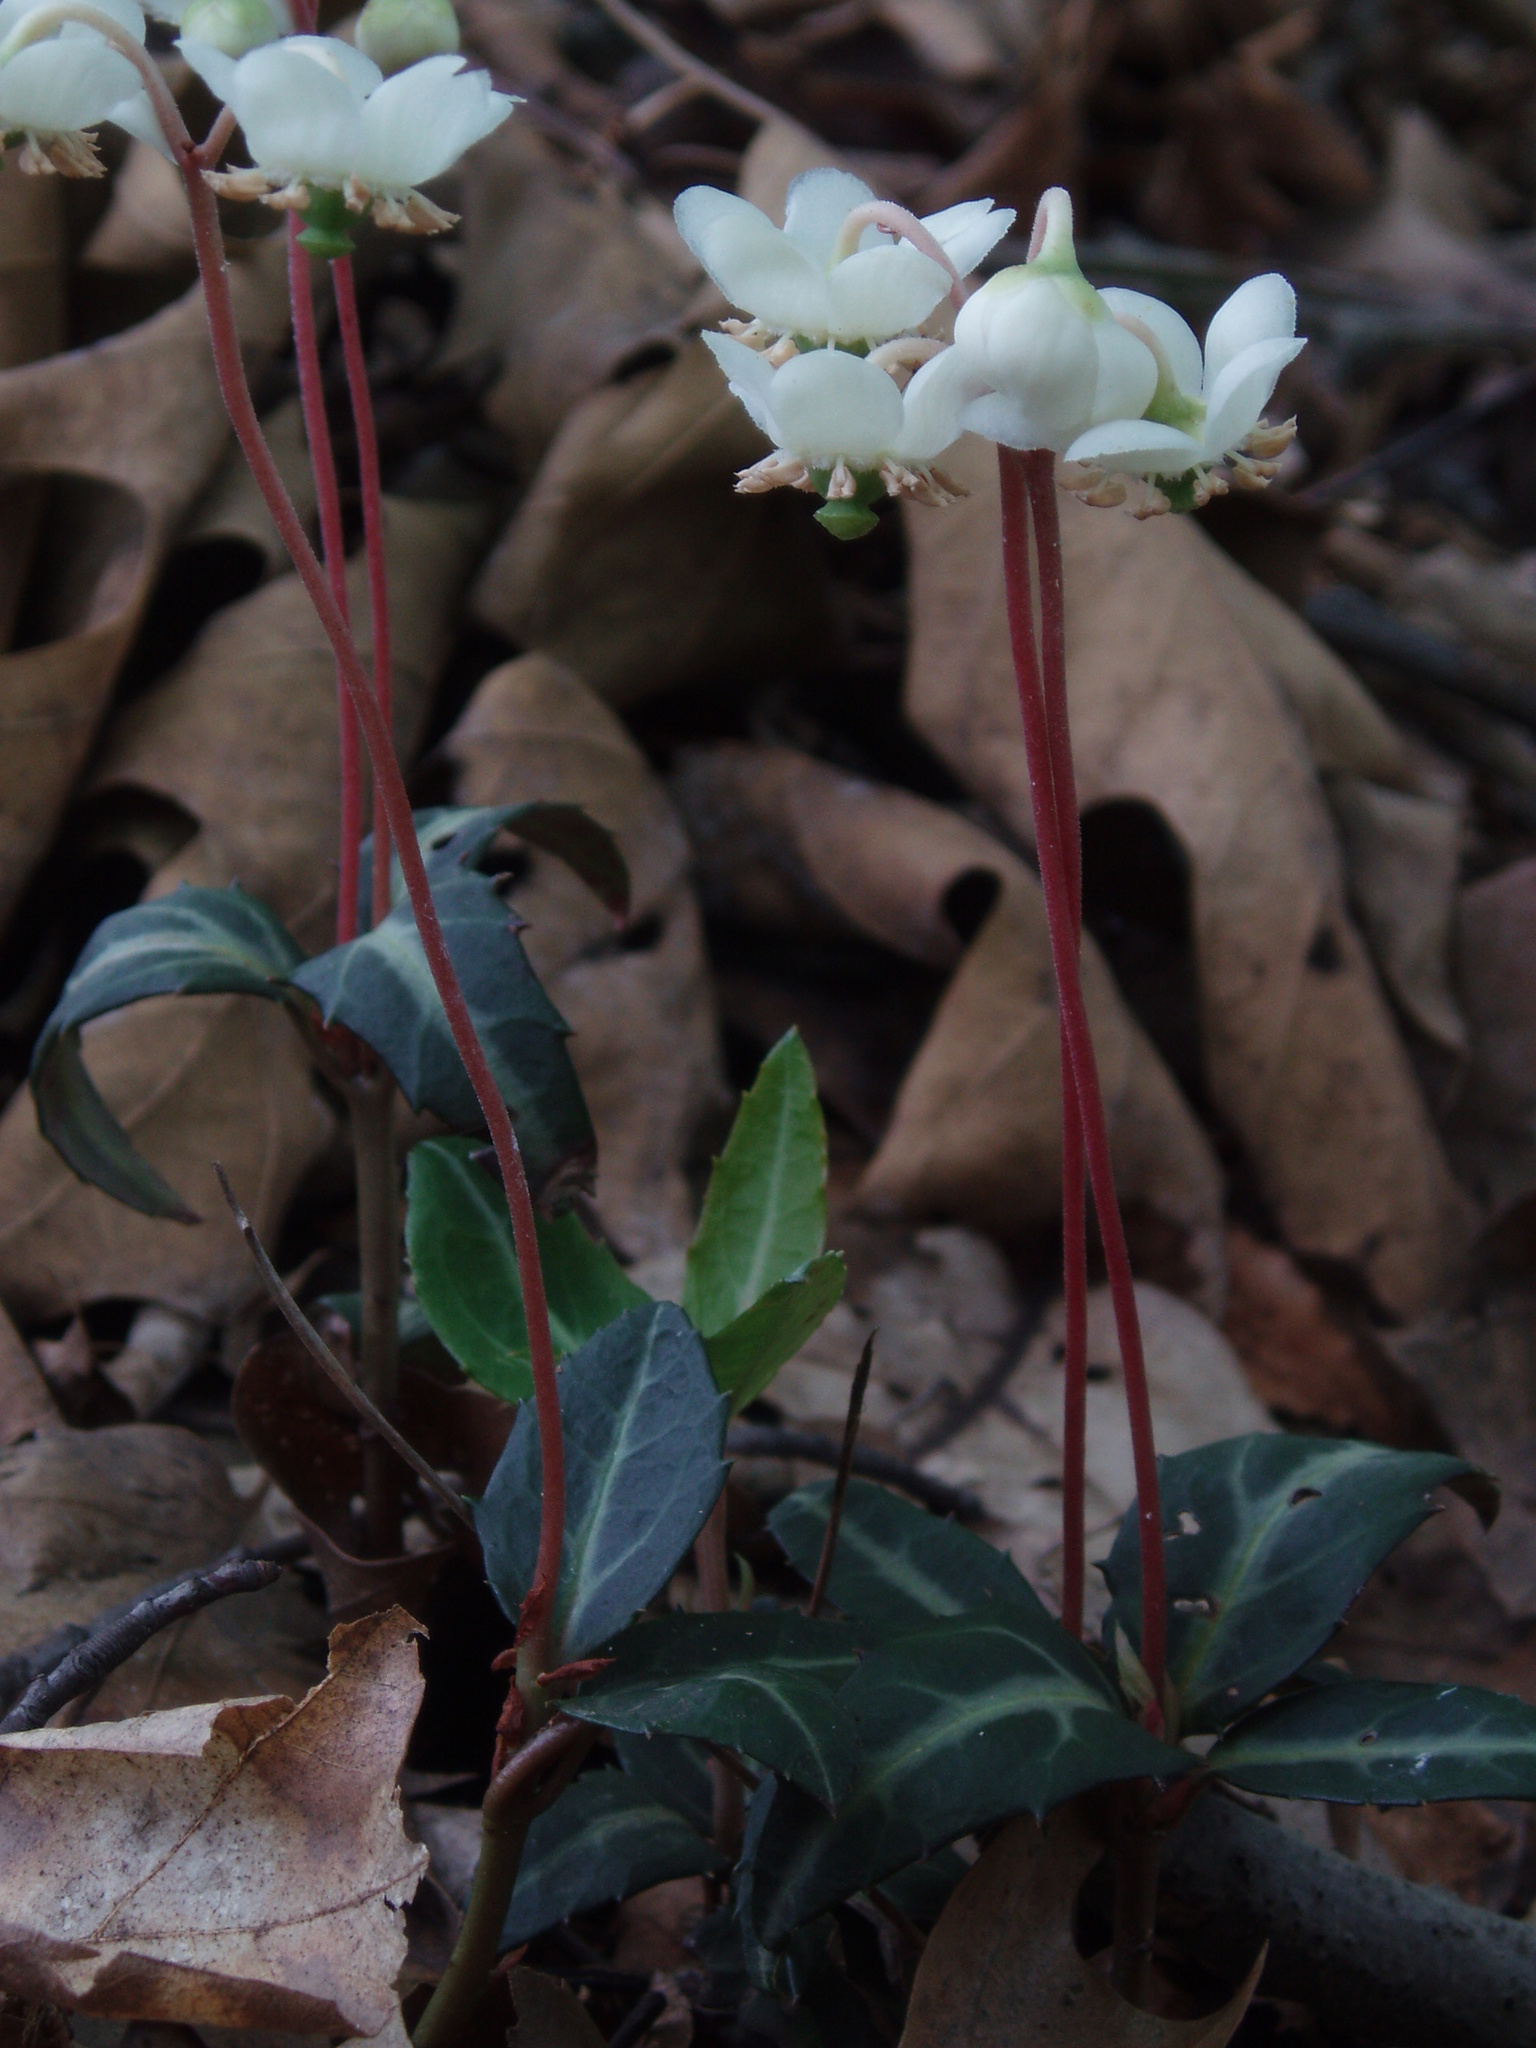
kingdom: Plantae
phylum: Tracheophyta
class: Magnoliopsida
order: Ericales
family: Ericaceae
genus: Chimaphila
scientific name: Chimaphila maculata
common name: Spotted pipsissewa
